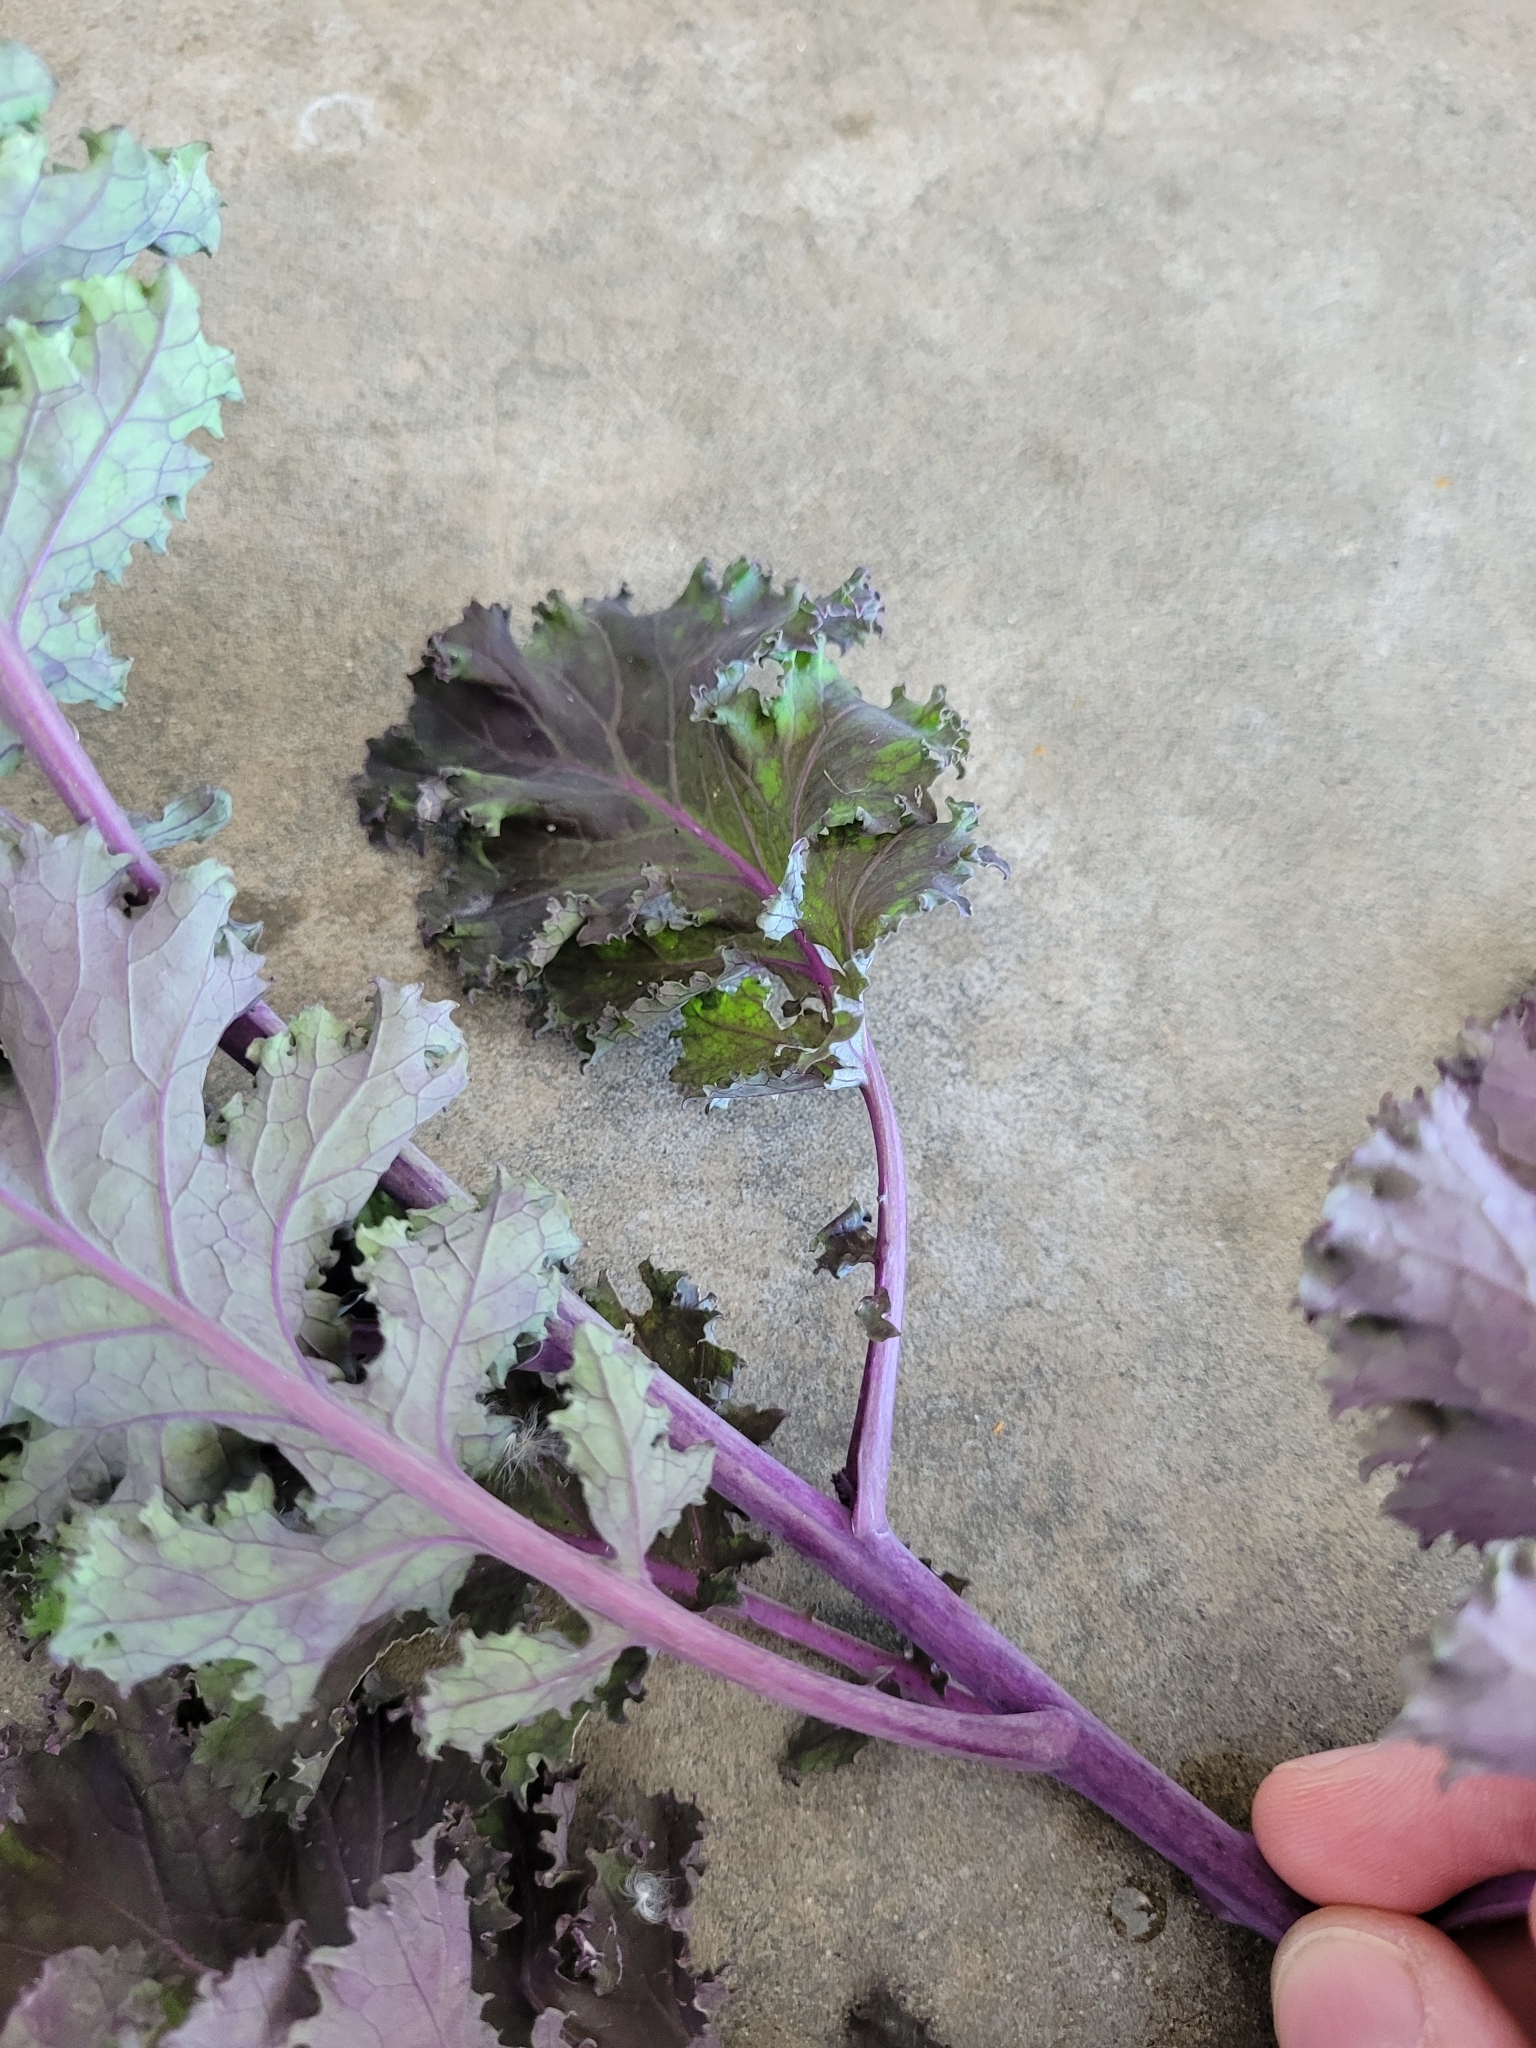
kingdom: Plantae
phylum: Tracheophyta
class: Magnoliopsida
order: Brassicales
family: Brassicaceae
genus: Brassica
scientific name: Brassica oleracea
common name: Cabbage
